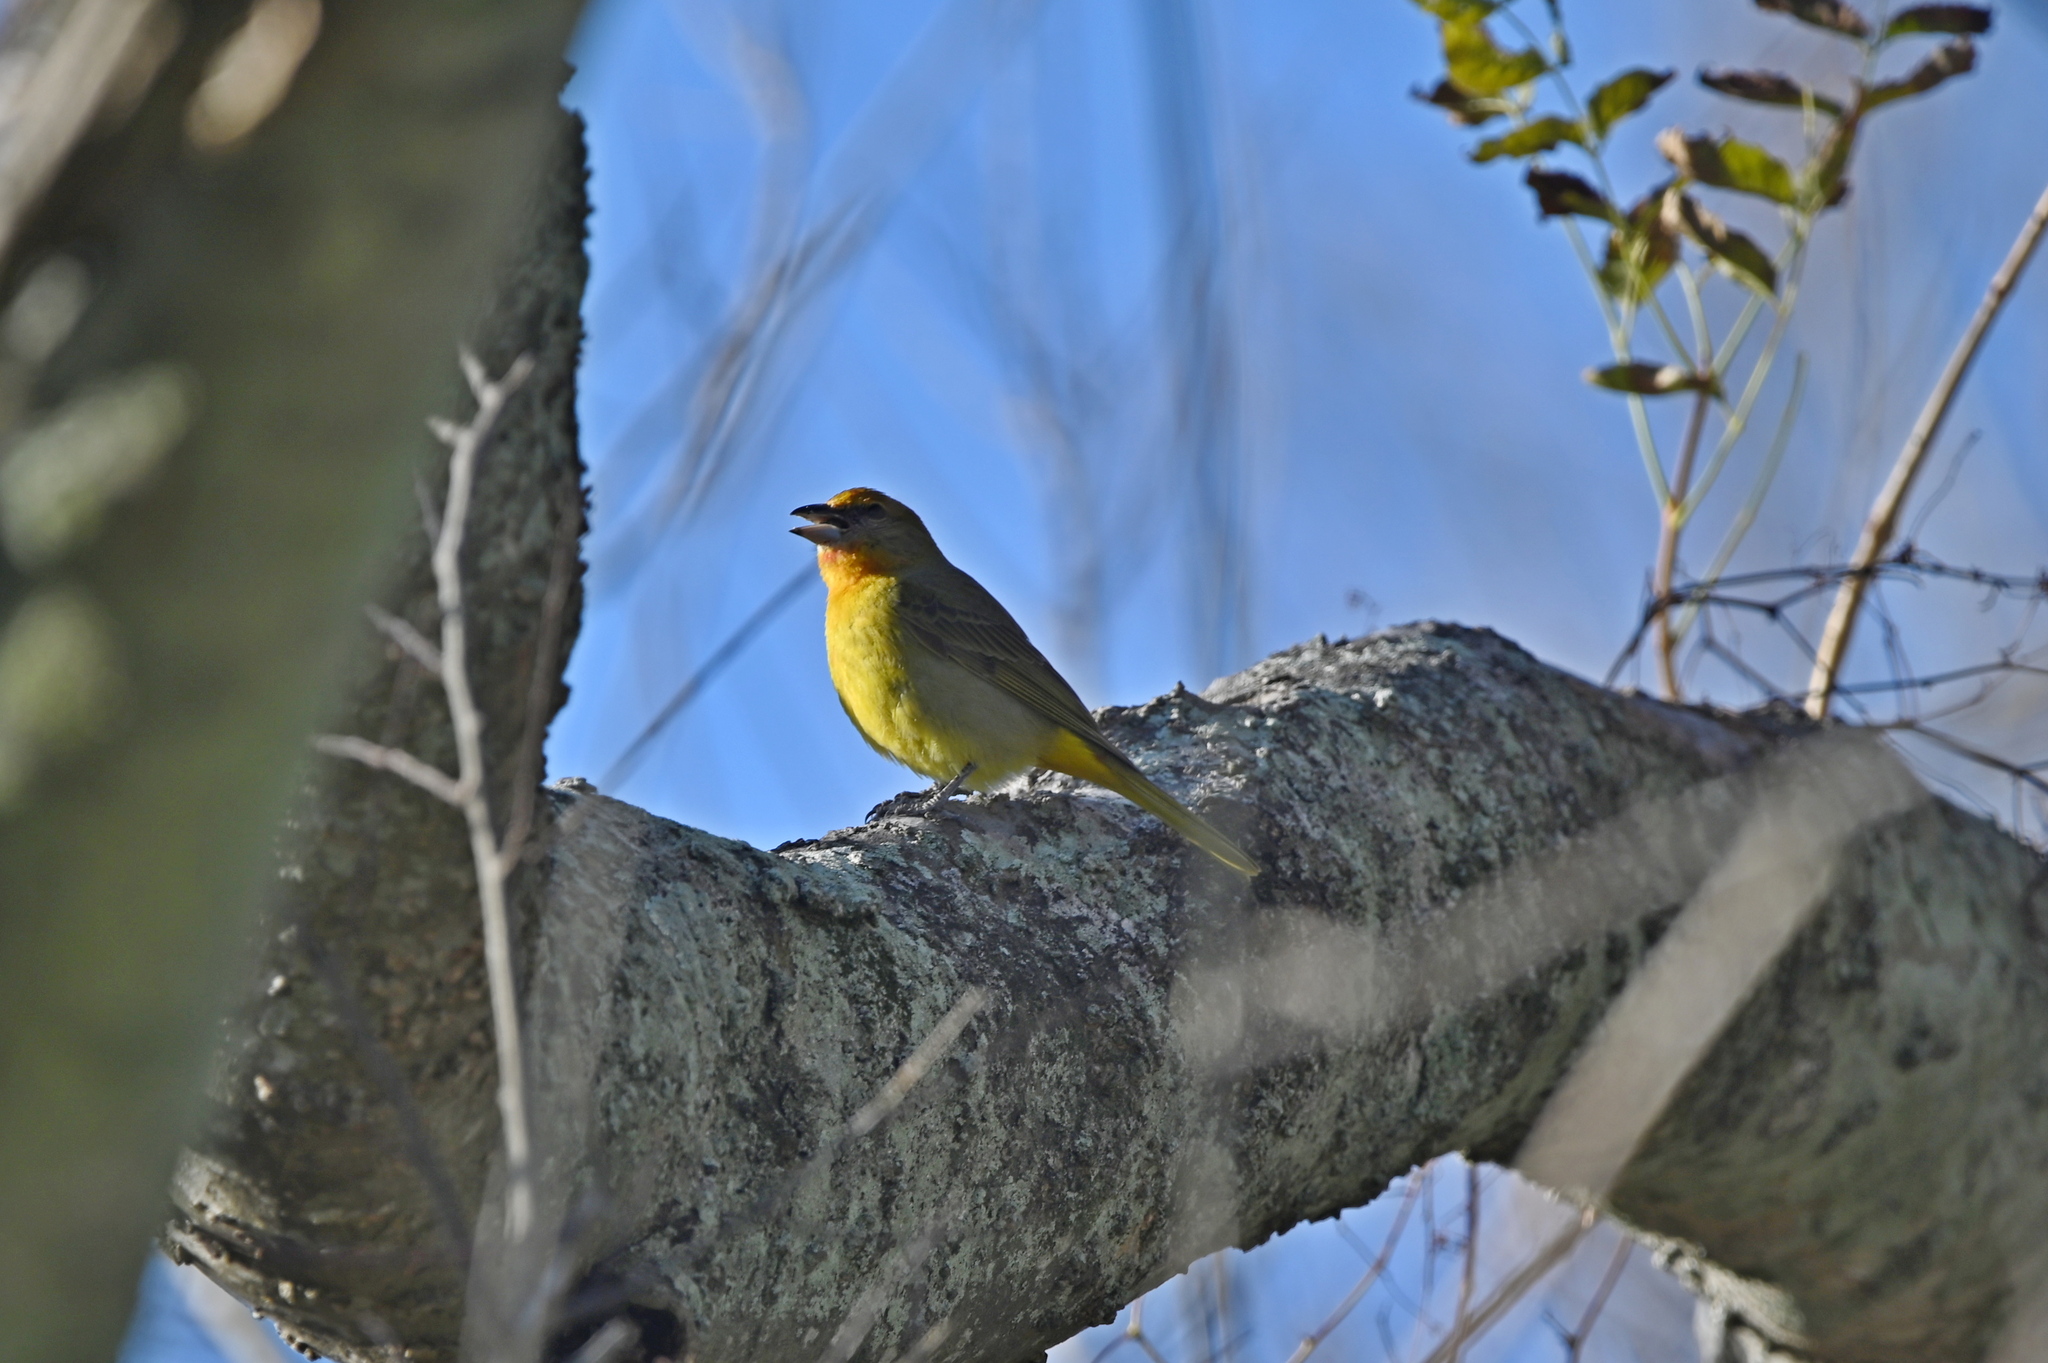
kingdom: Animalia
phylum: Chordata
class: Aves
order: Passeriformes
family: Cardinalidae
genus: Piranga
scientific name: Piranga flava
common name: Red tanager
